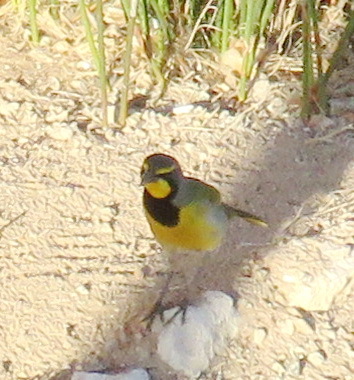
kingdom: Animalia
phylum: Chordata
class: Aves
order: Passeriformes
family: Malaconotidae
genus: Telophorus
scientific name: Telophorus zeylonus
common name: Bokmakierie
